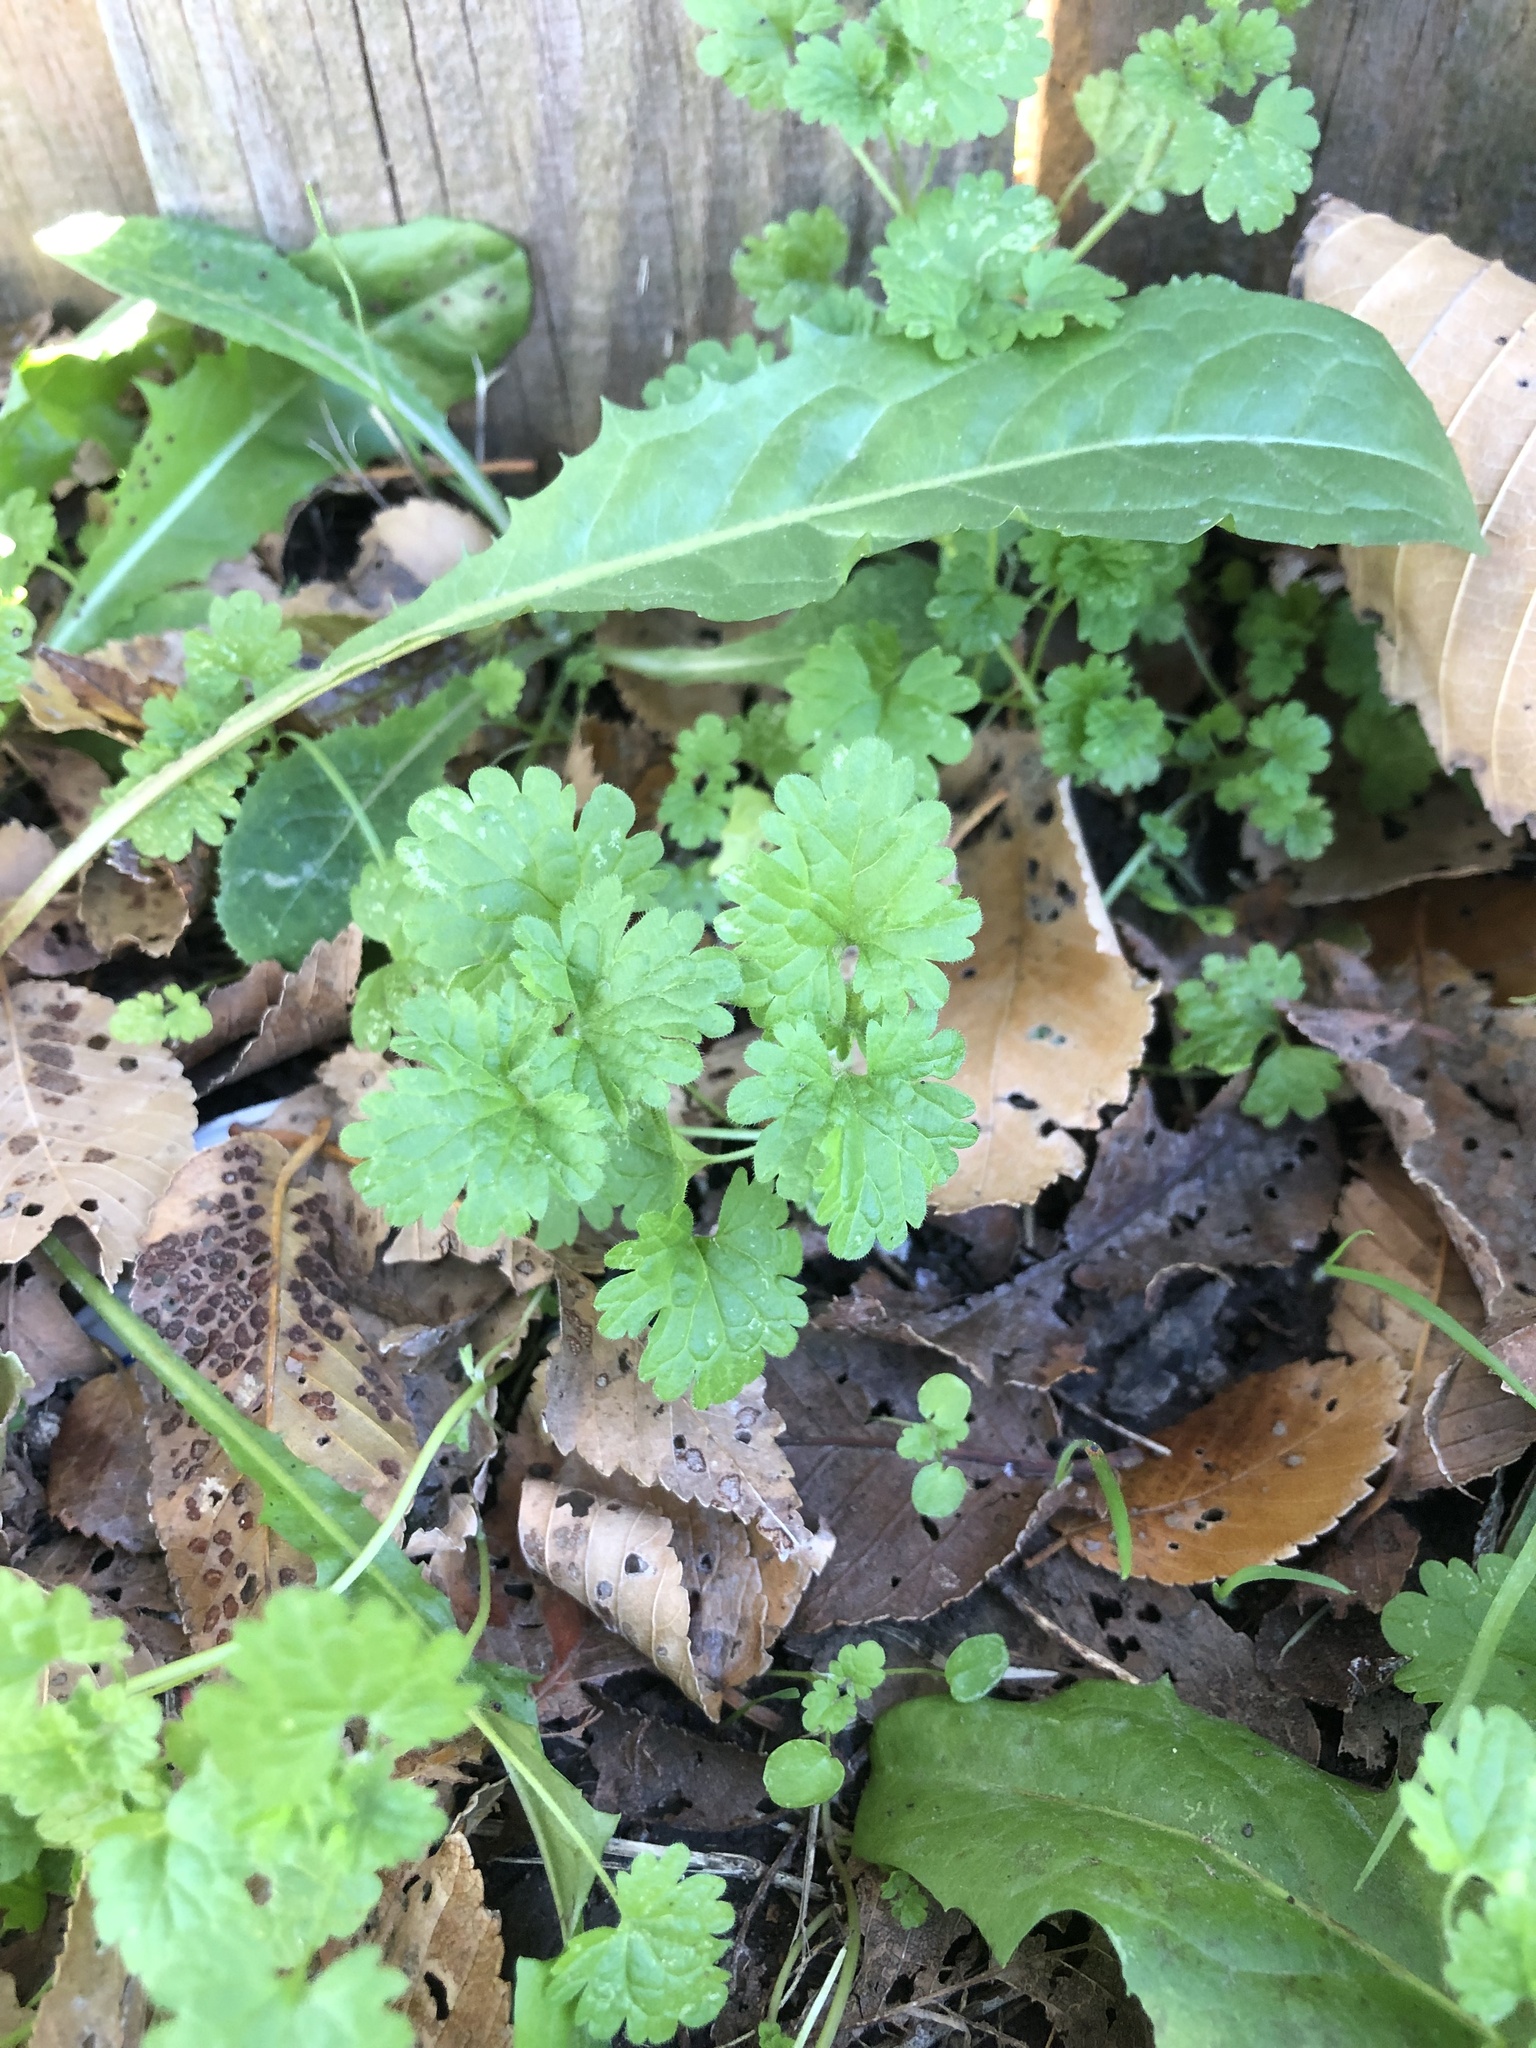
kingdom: Plantae
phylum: Tracheophyta
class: Magnoliopsida
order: Lamiales
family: Lamiaceae
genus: Lamium
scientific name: Lamium amplexicaule
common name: Henbit dead-nettle
